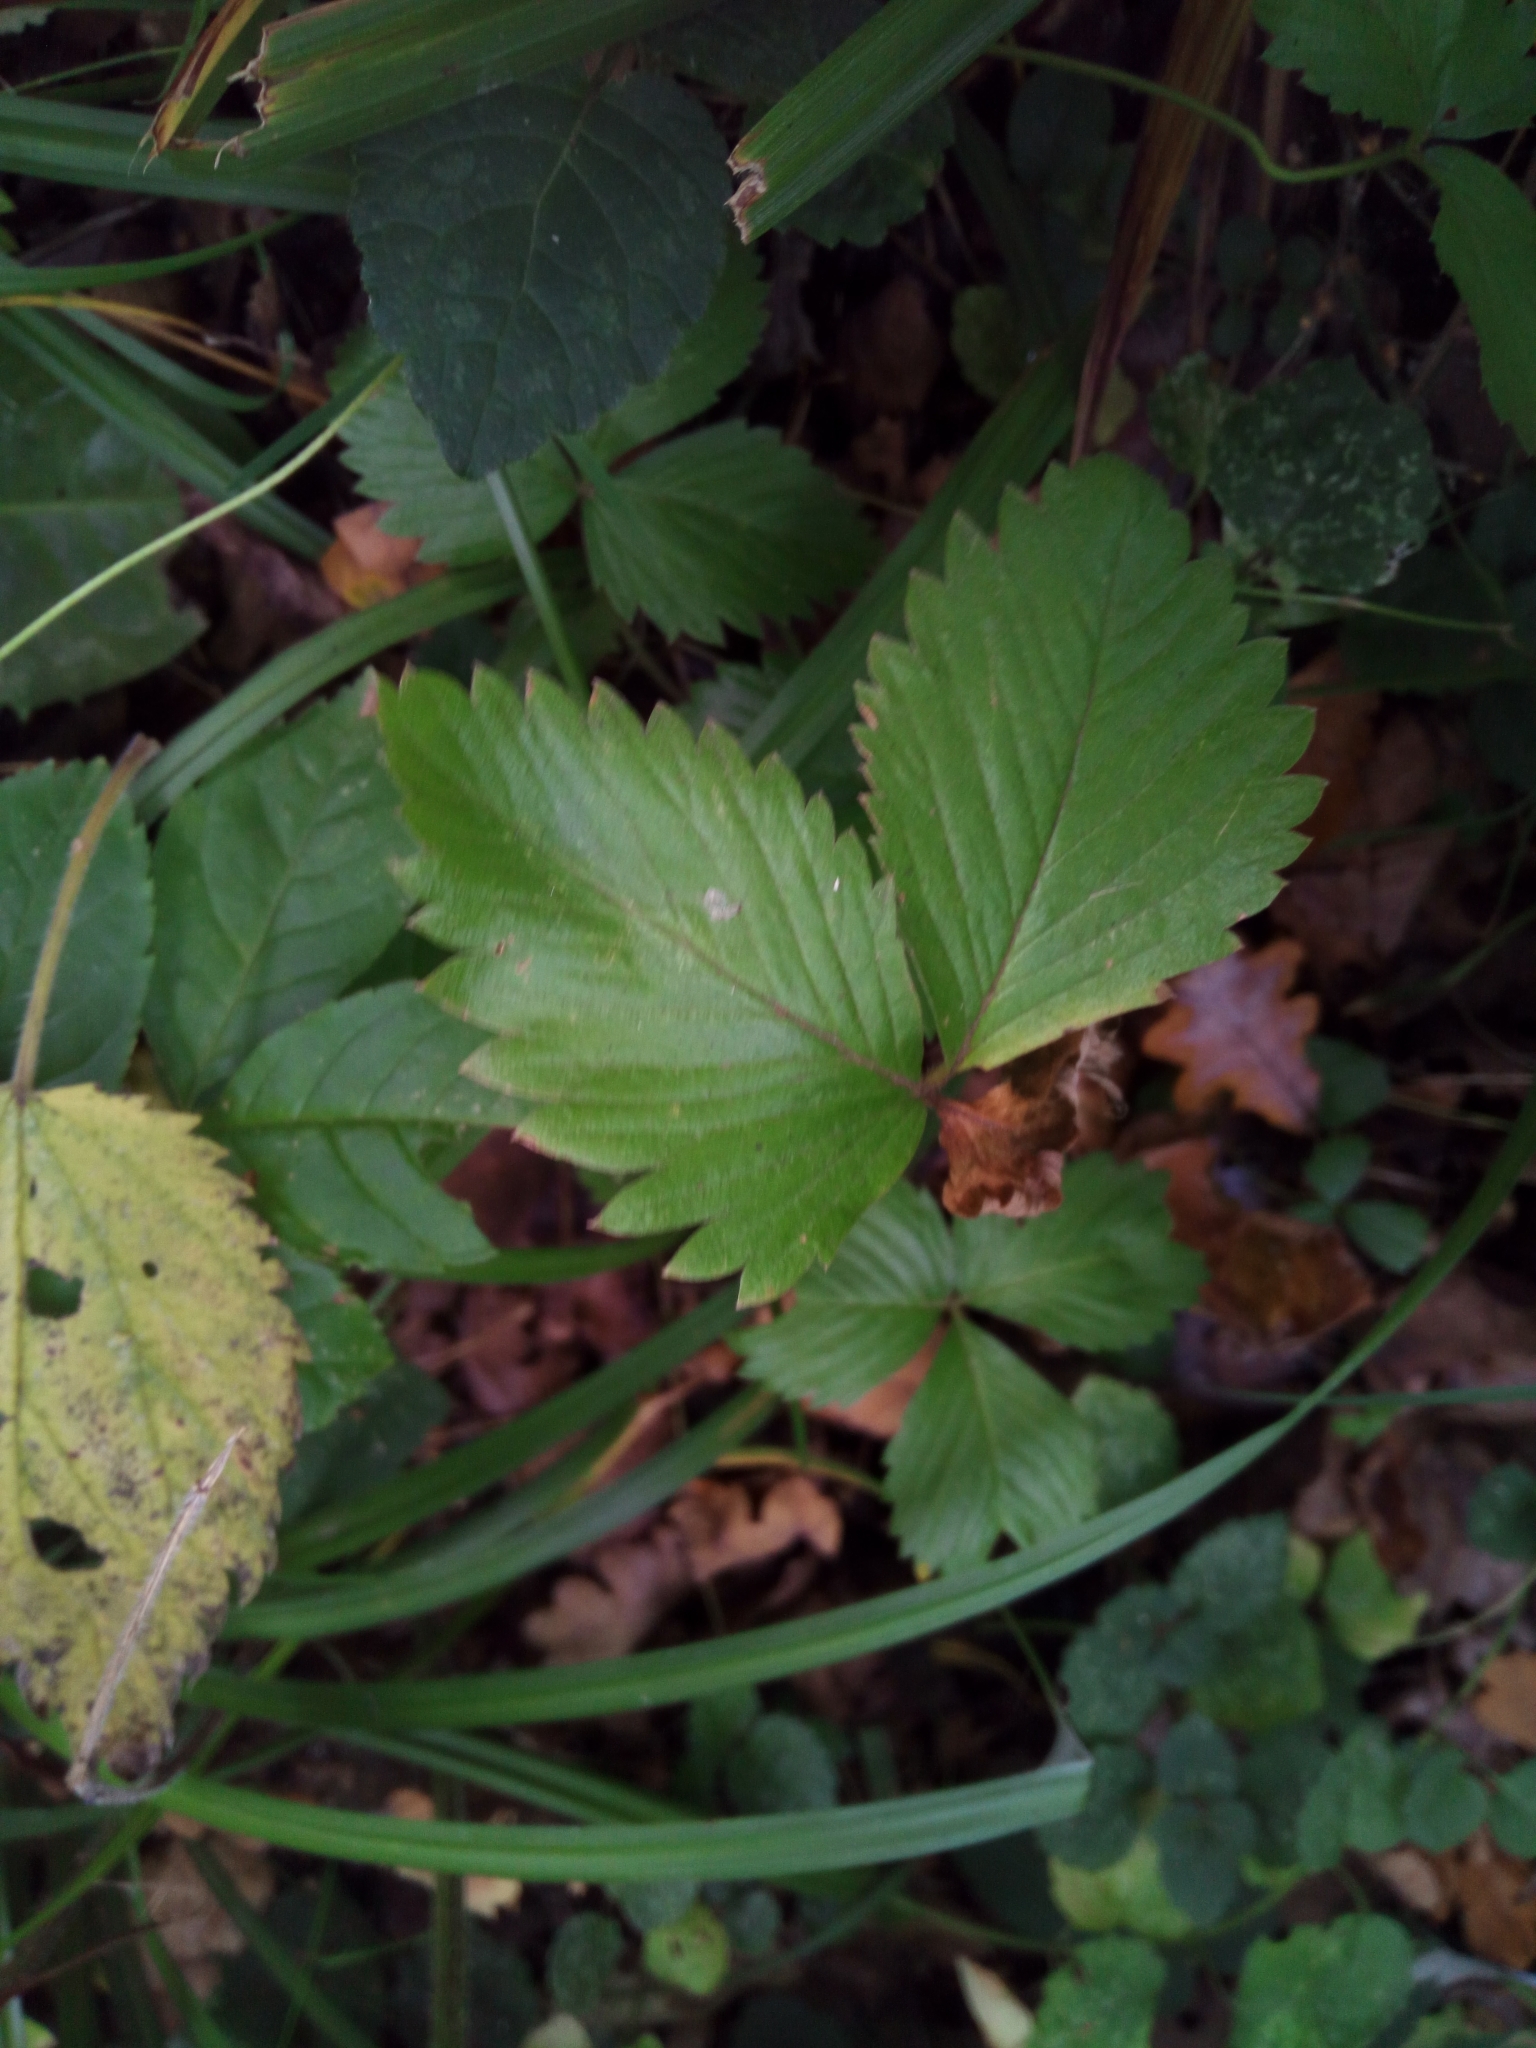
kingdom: Plantae
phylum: Tracheophyta
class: Magnoliopsida
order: Rosales
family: Rosaceae
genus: Fragaria
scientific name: Fragaria vesca
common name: Wild strawberry
